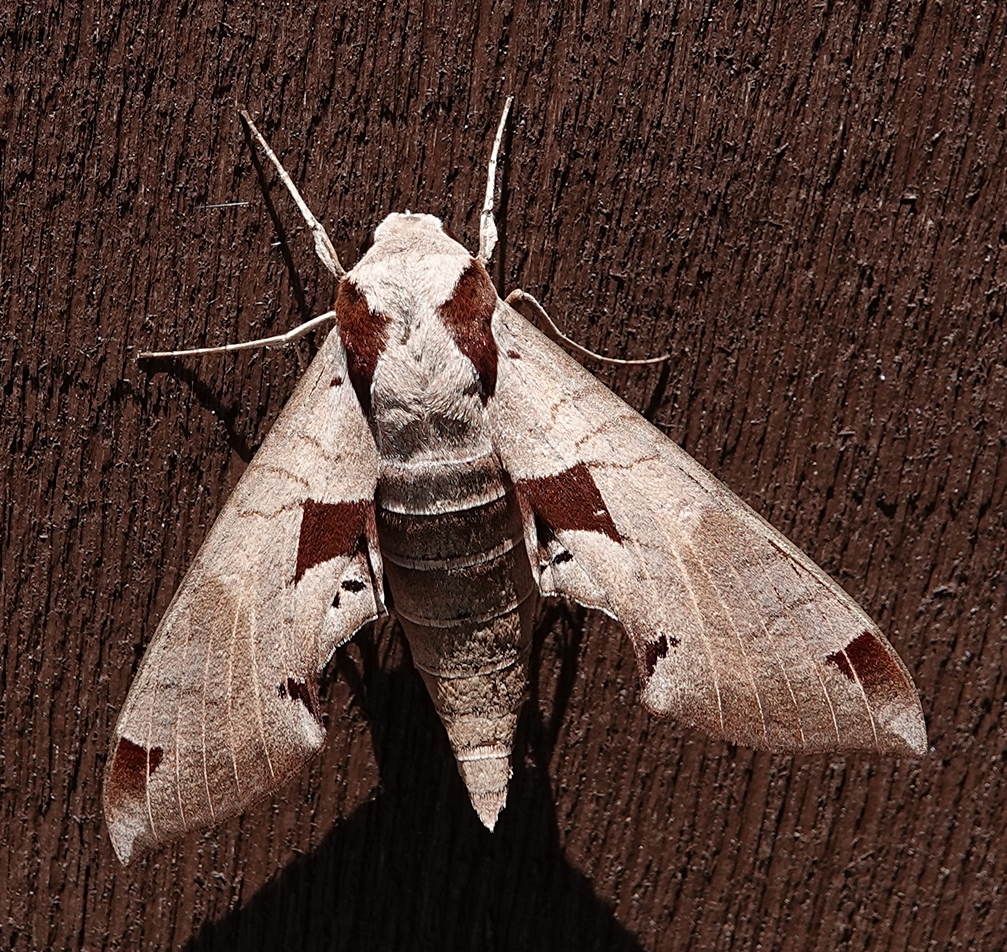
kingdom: Animalia
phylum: Arthropoda
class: Insecta
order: Lepidoptera
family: Sphingidae
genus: Eumorpha
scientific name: Eumorpha achemon
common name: Achemon sphinx
